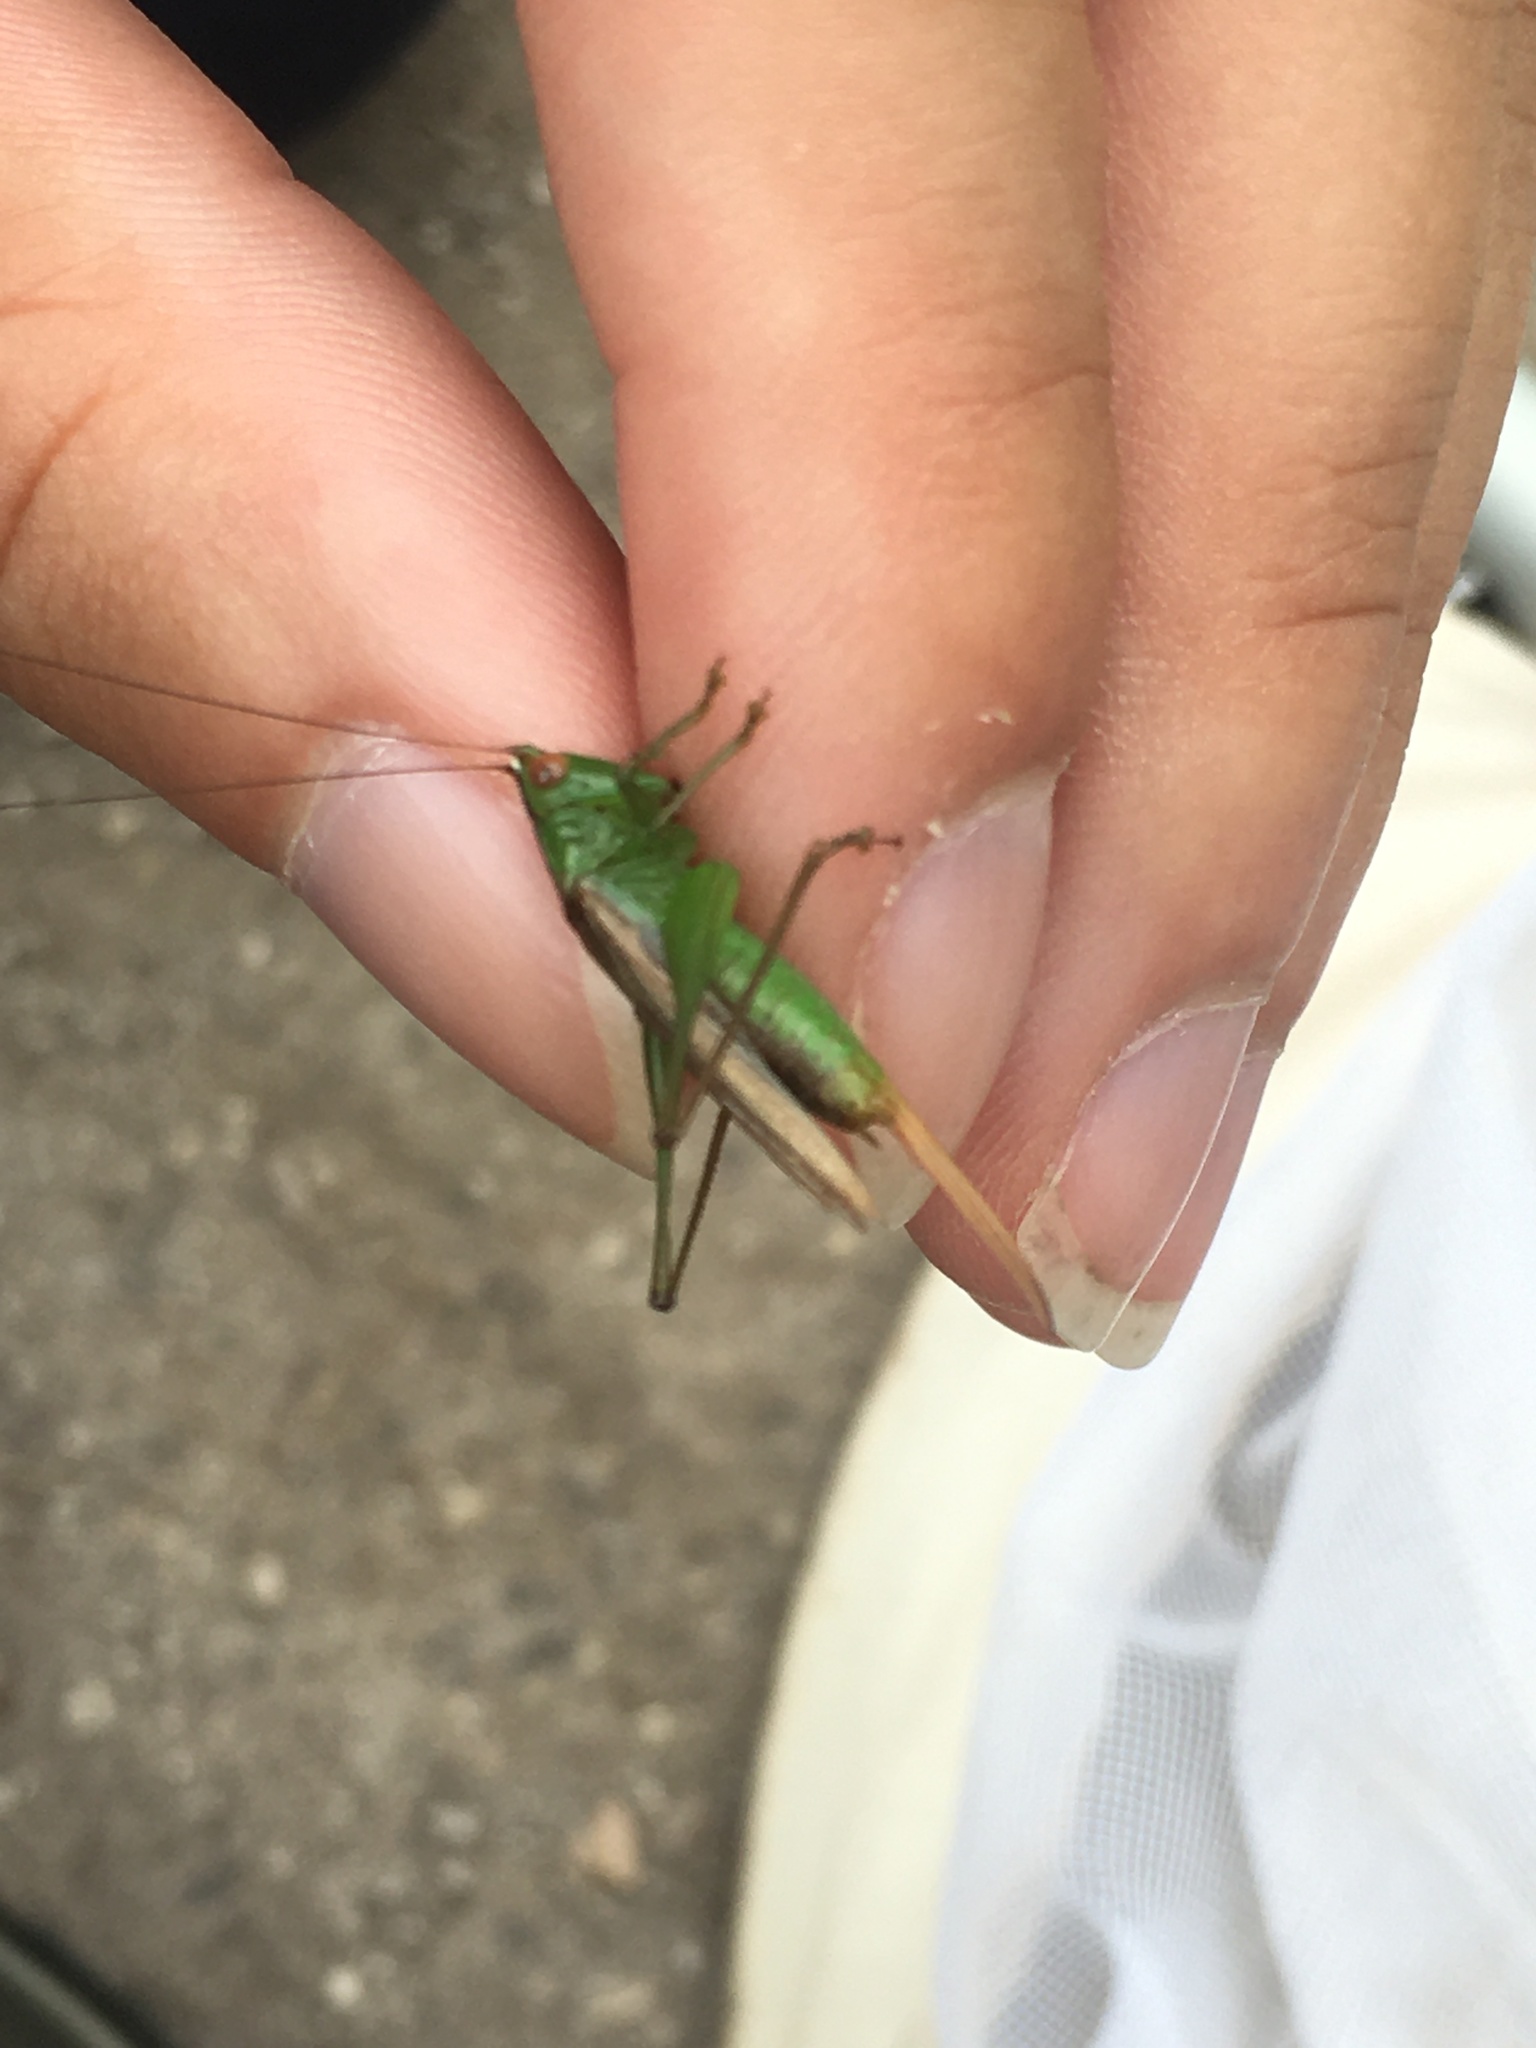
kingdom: Animalia
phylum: Arthropoda
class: Insecta
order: Orthoptera
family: Tettigoniidae
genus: Conocephalus
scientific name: Conocephalus cinereus
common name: Caribbean meadow katydid
